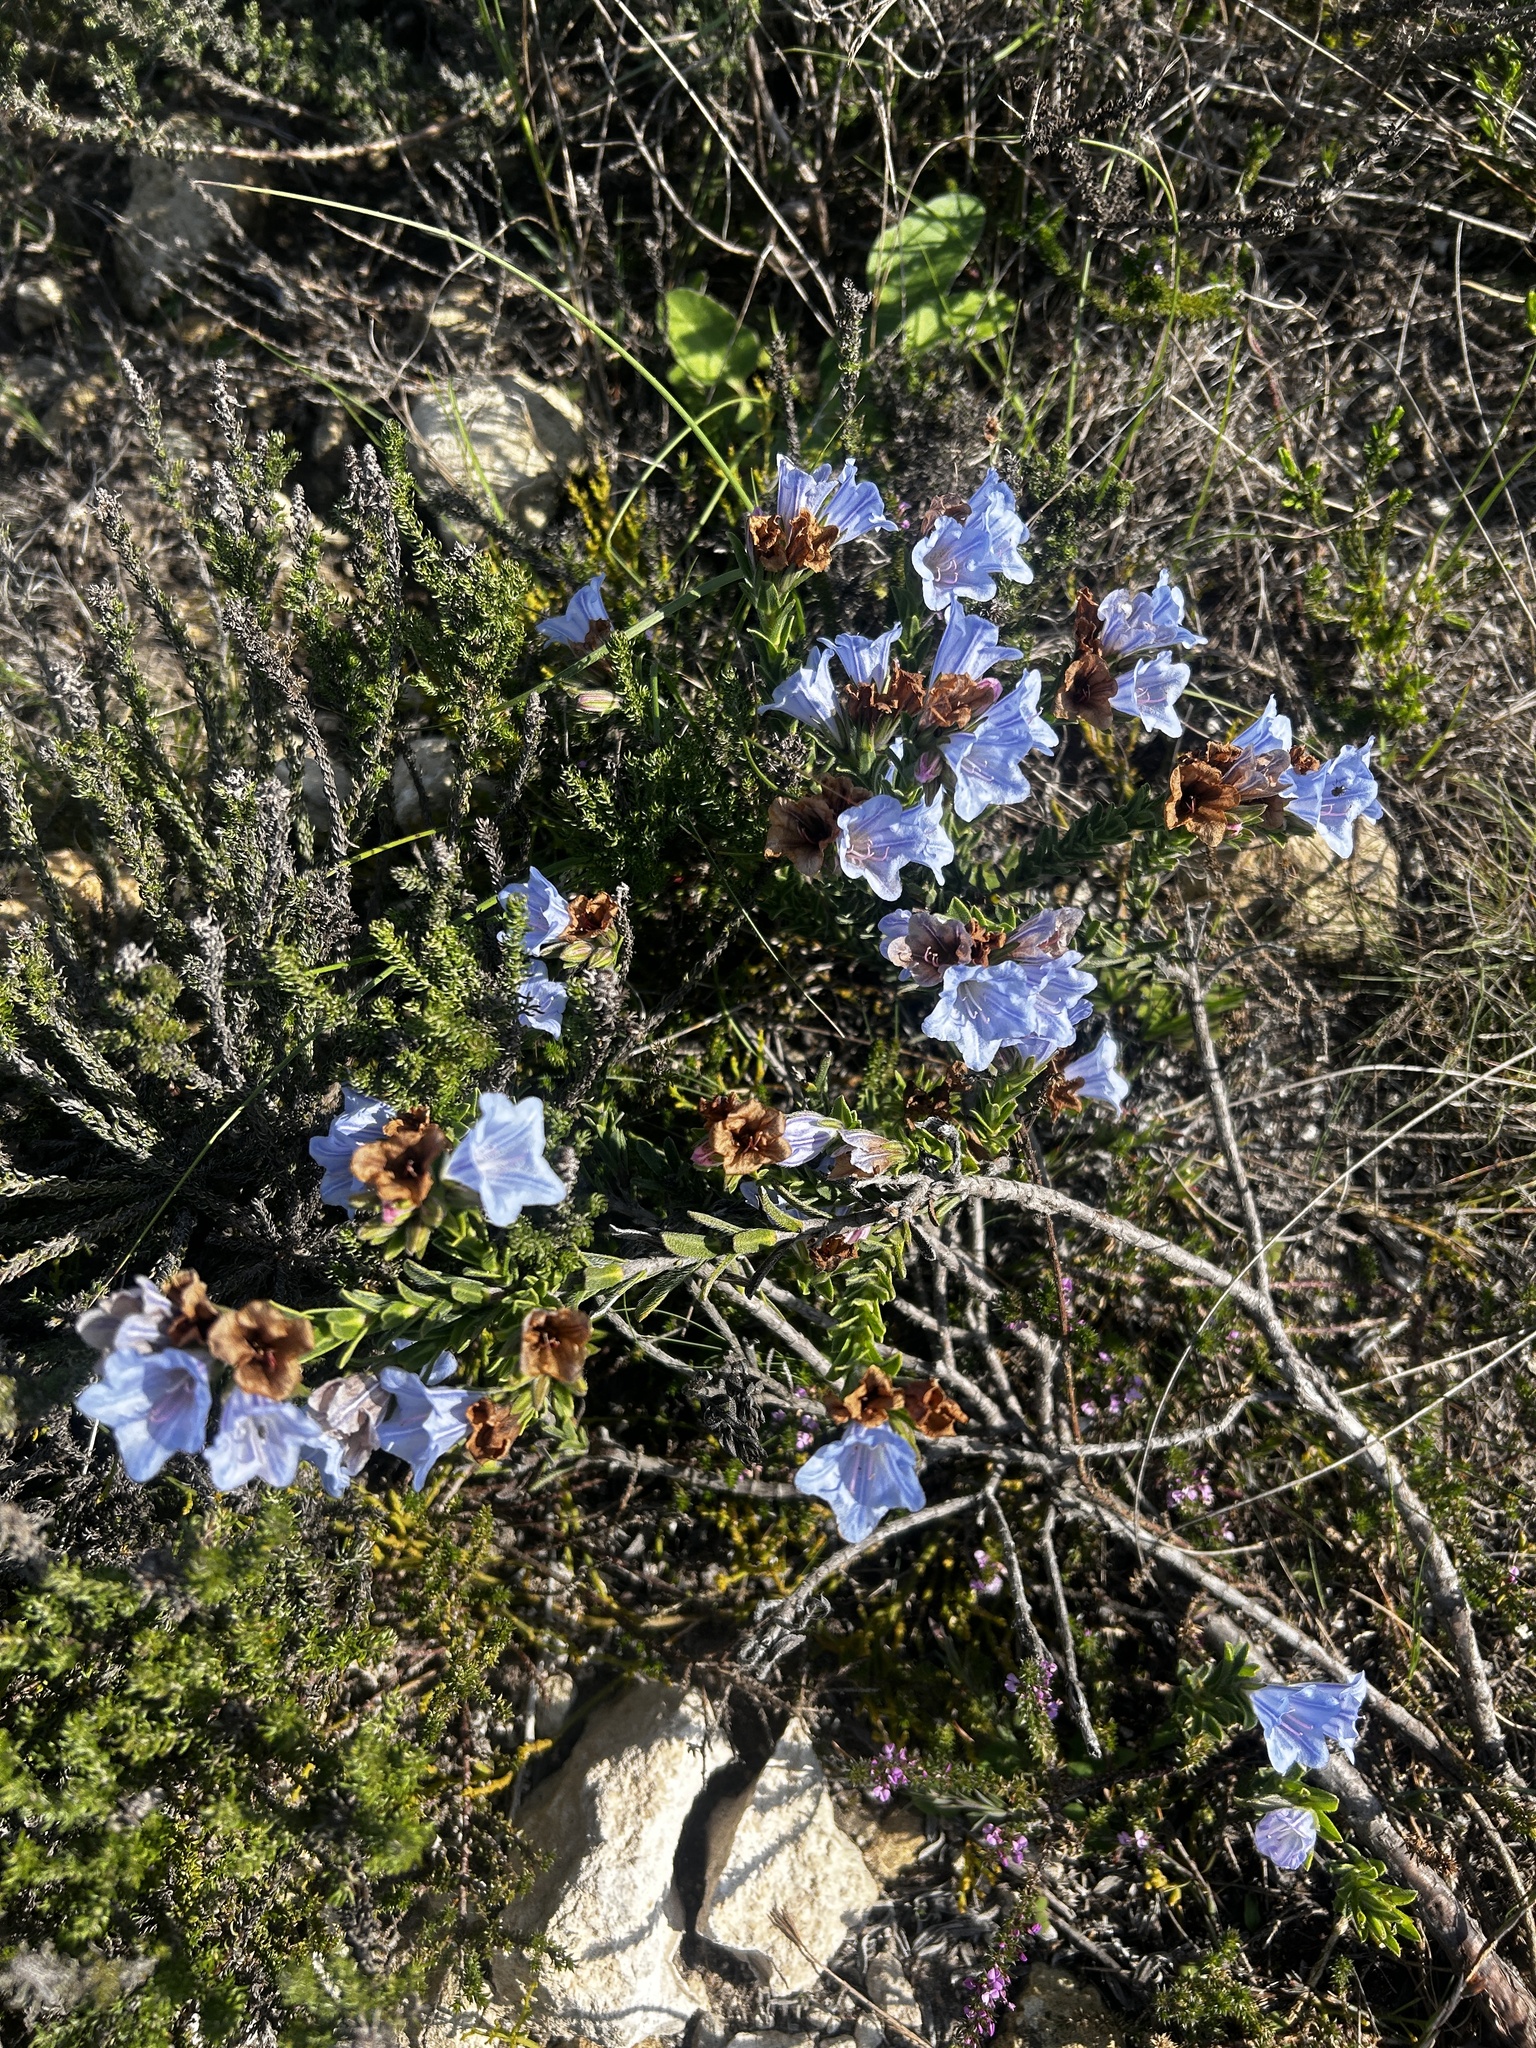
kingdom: Plantae
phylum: Tracheophyta
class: Magnoliopsida
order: Boraginales
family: Boraginaceae
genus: Lobostemon
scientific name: Lobostemon fruticosus
